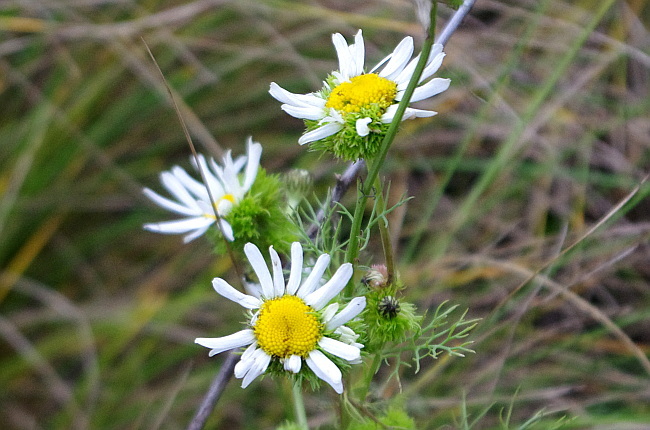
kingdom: Plantae
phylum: Tracheophyta
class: Magnoliopsida
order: Asterales
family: Asteraceae
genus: Tripleurospermum
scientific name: Tripleurospermum inodorum
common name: Scentless mayweed
